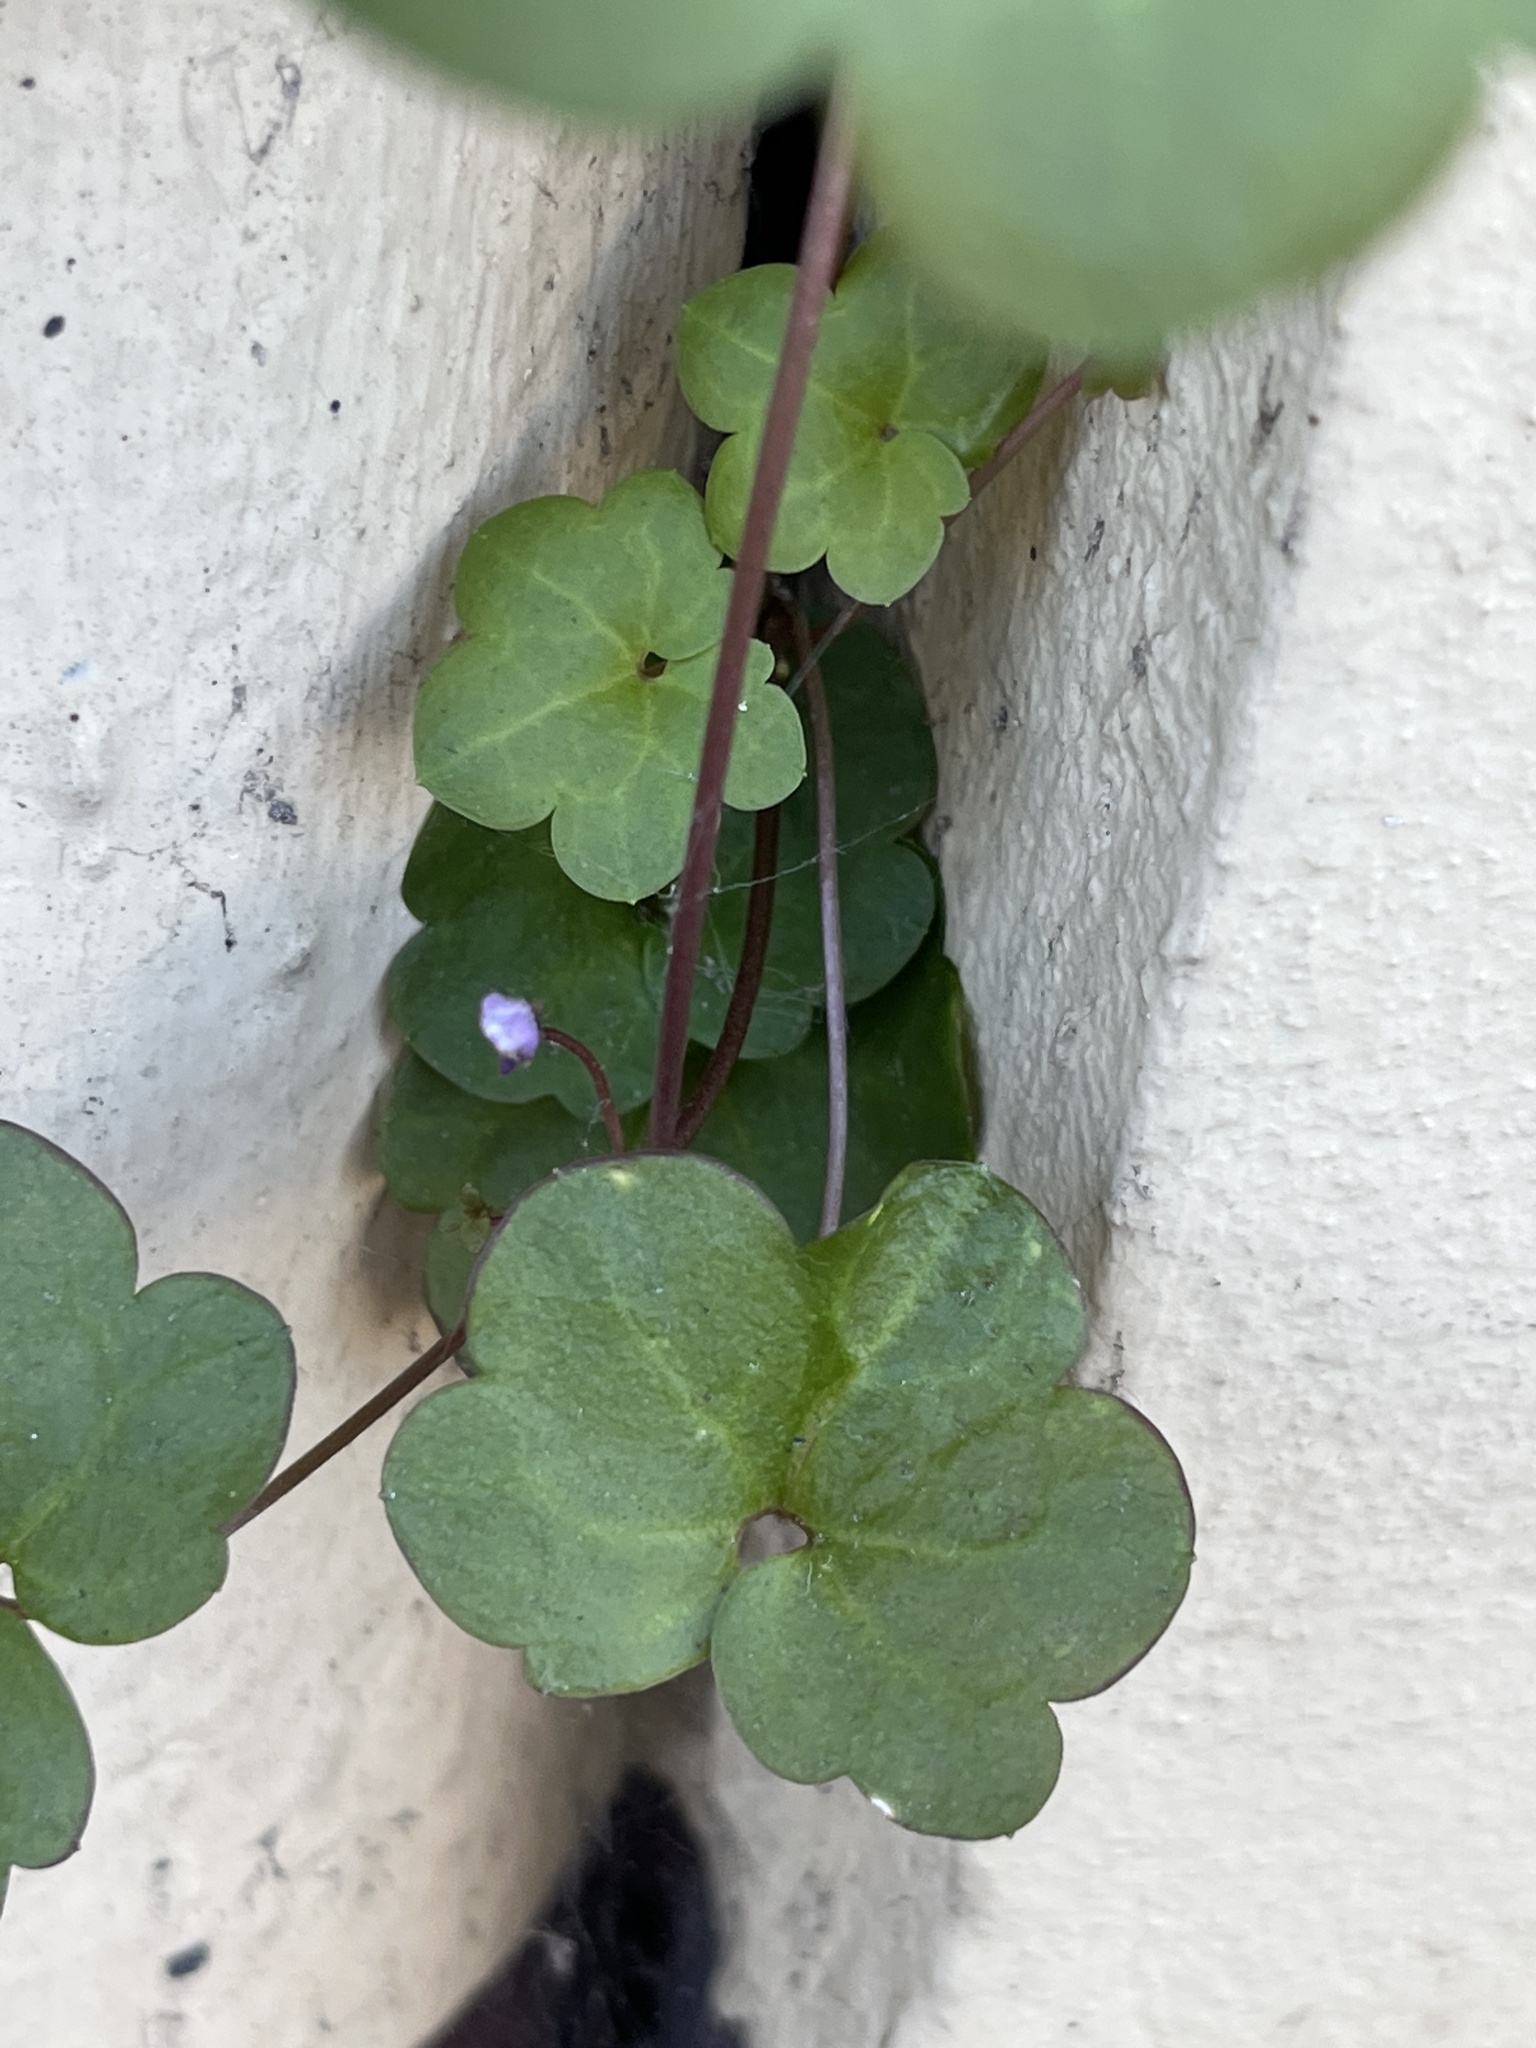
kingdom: Plantae
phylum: Tracheophyta
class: Magnoliopsida
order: Lamiales
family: Plantaginaceae
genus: Cymbalaria
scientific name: Cymbalaria muralis
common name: Ivy-leaved toadflax
